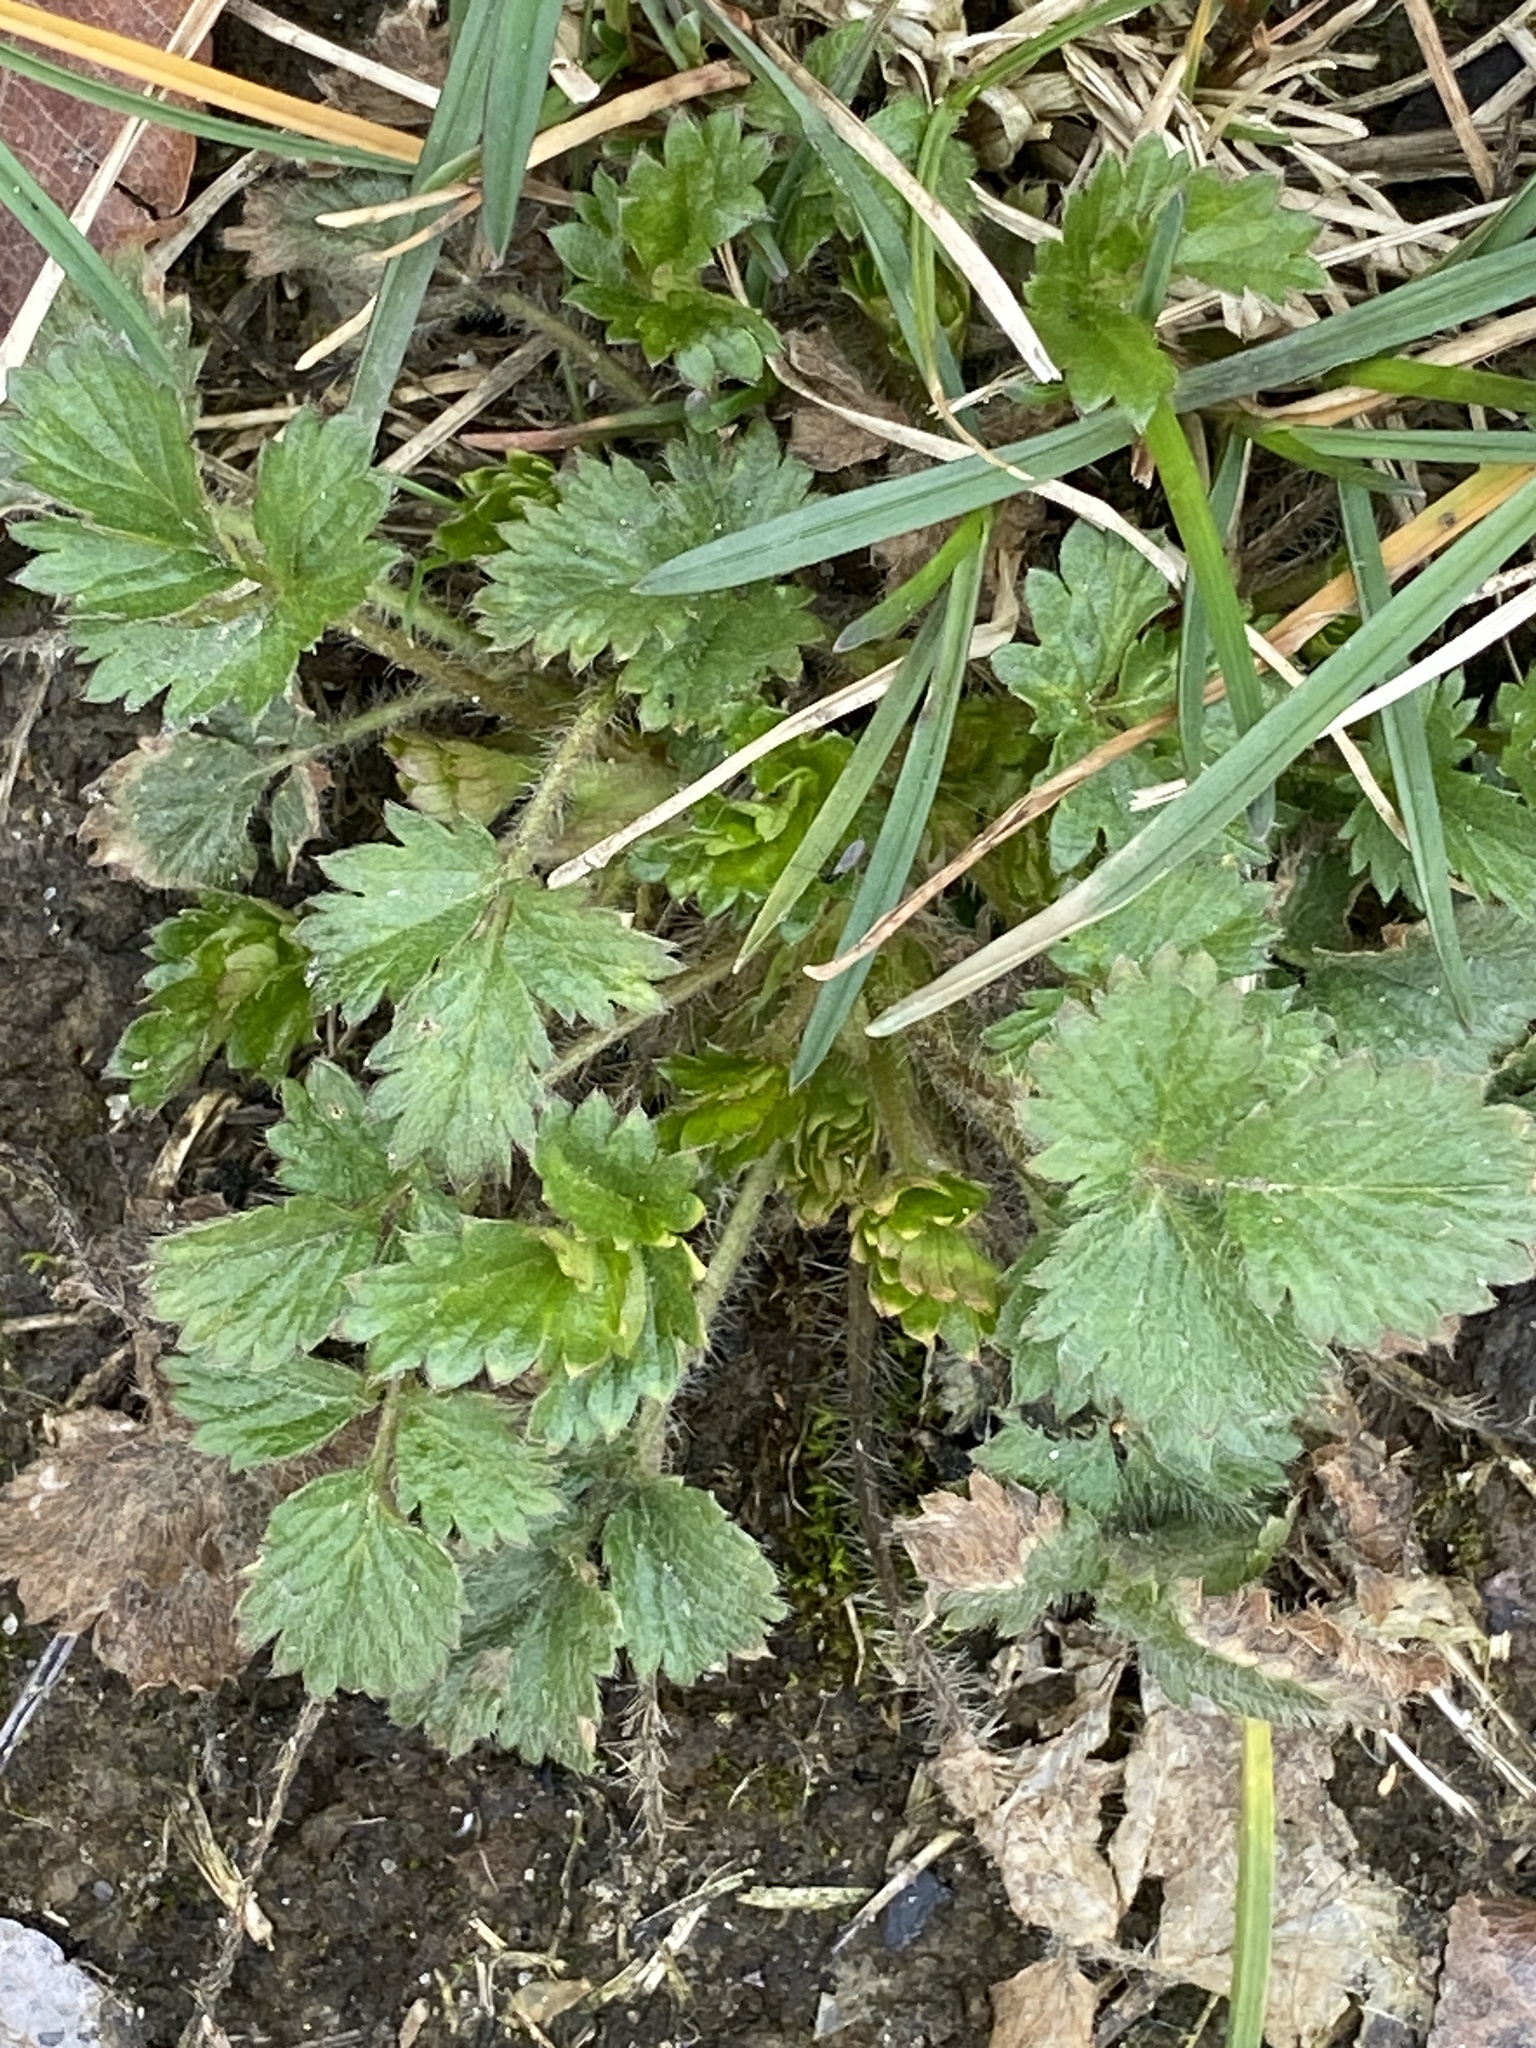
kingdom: Plantae
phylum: Tracheophyta
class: Magnoliopsida
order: Rosales
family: Rosaceae
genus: Potentilla
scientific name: Potentilla norvegica
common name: Ternate-leaved cinquefoil
